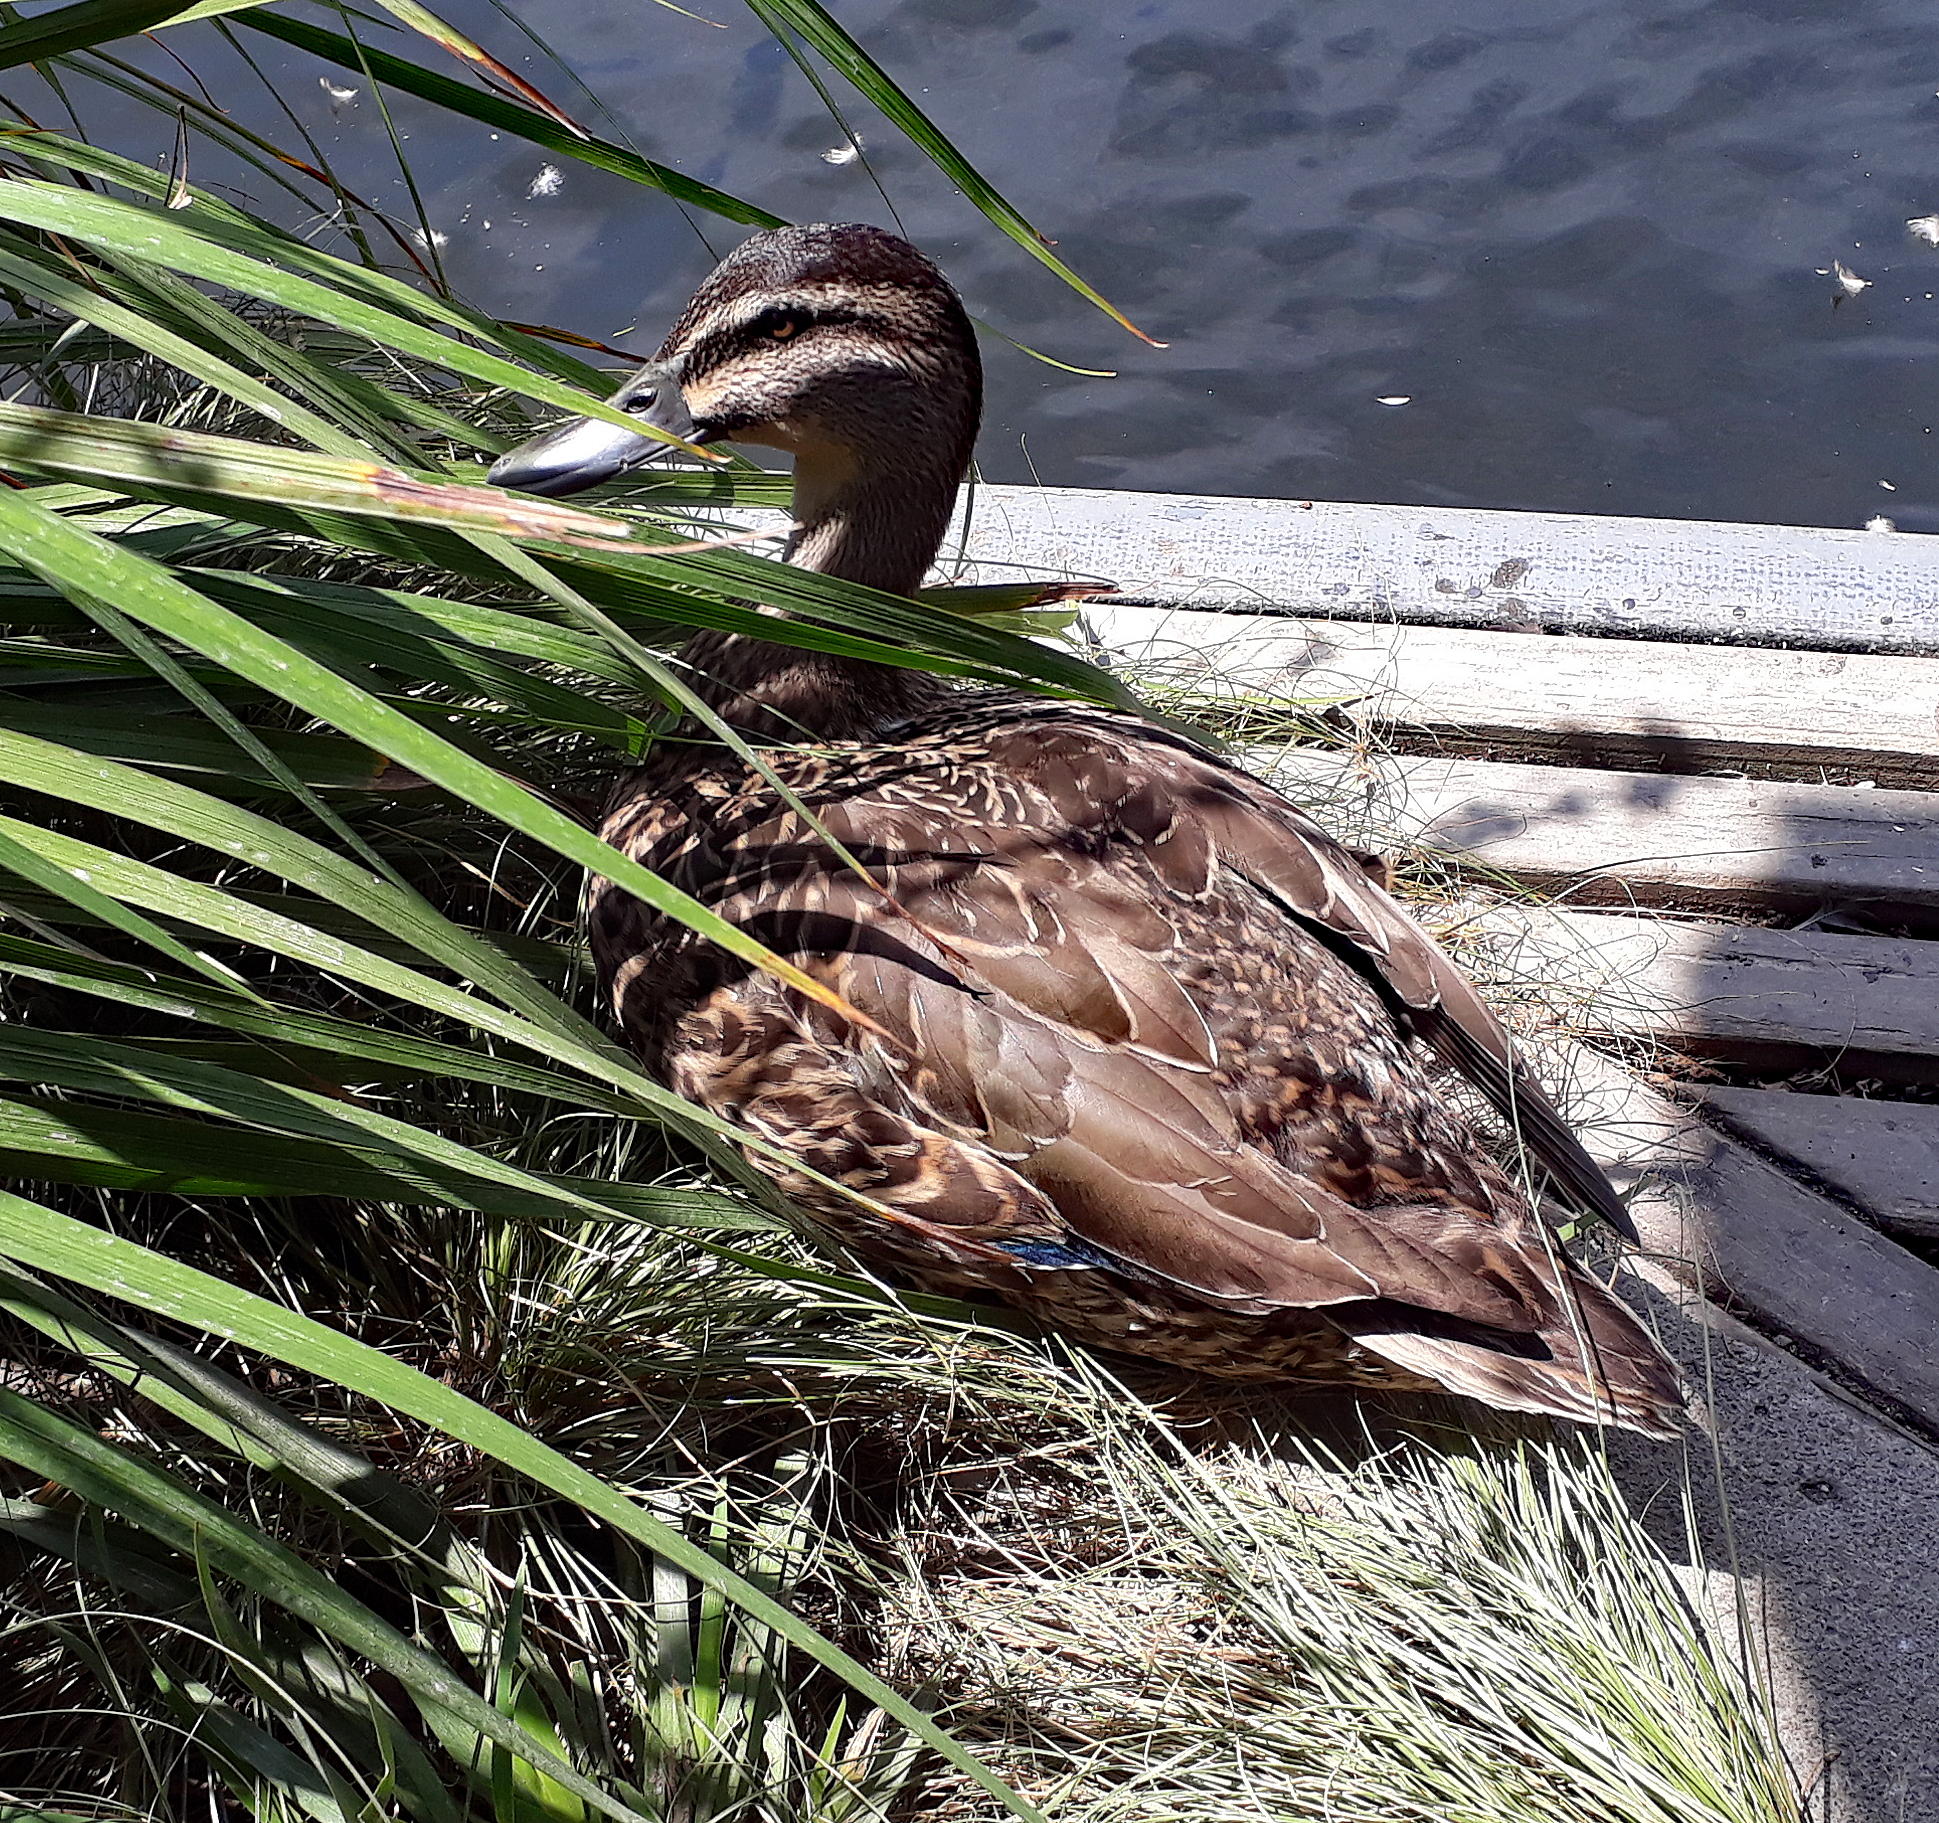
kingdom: Animalia
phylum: Chordata
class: Aves
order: Anseriformes
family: Anatidae
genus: Anas
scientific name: Anas platyrhynchos
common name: Mallard
